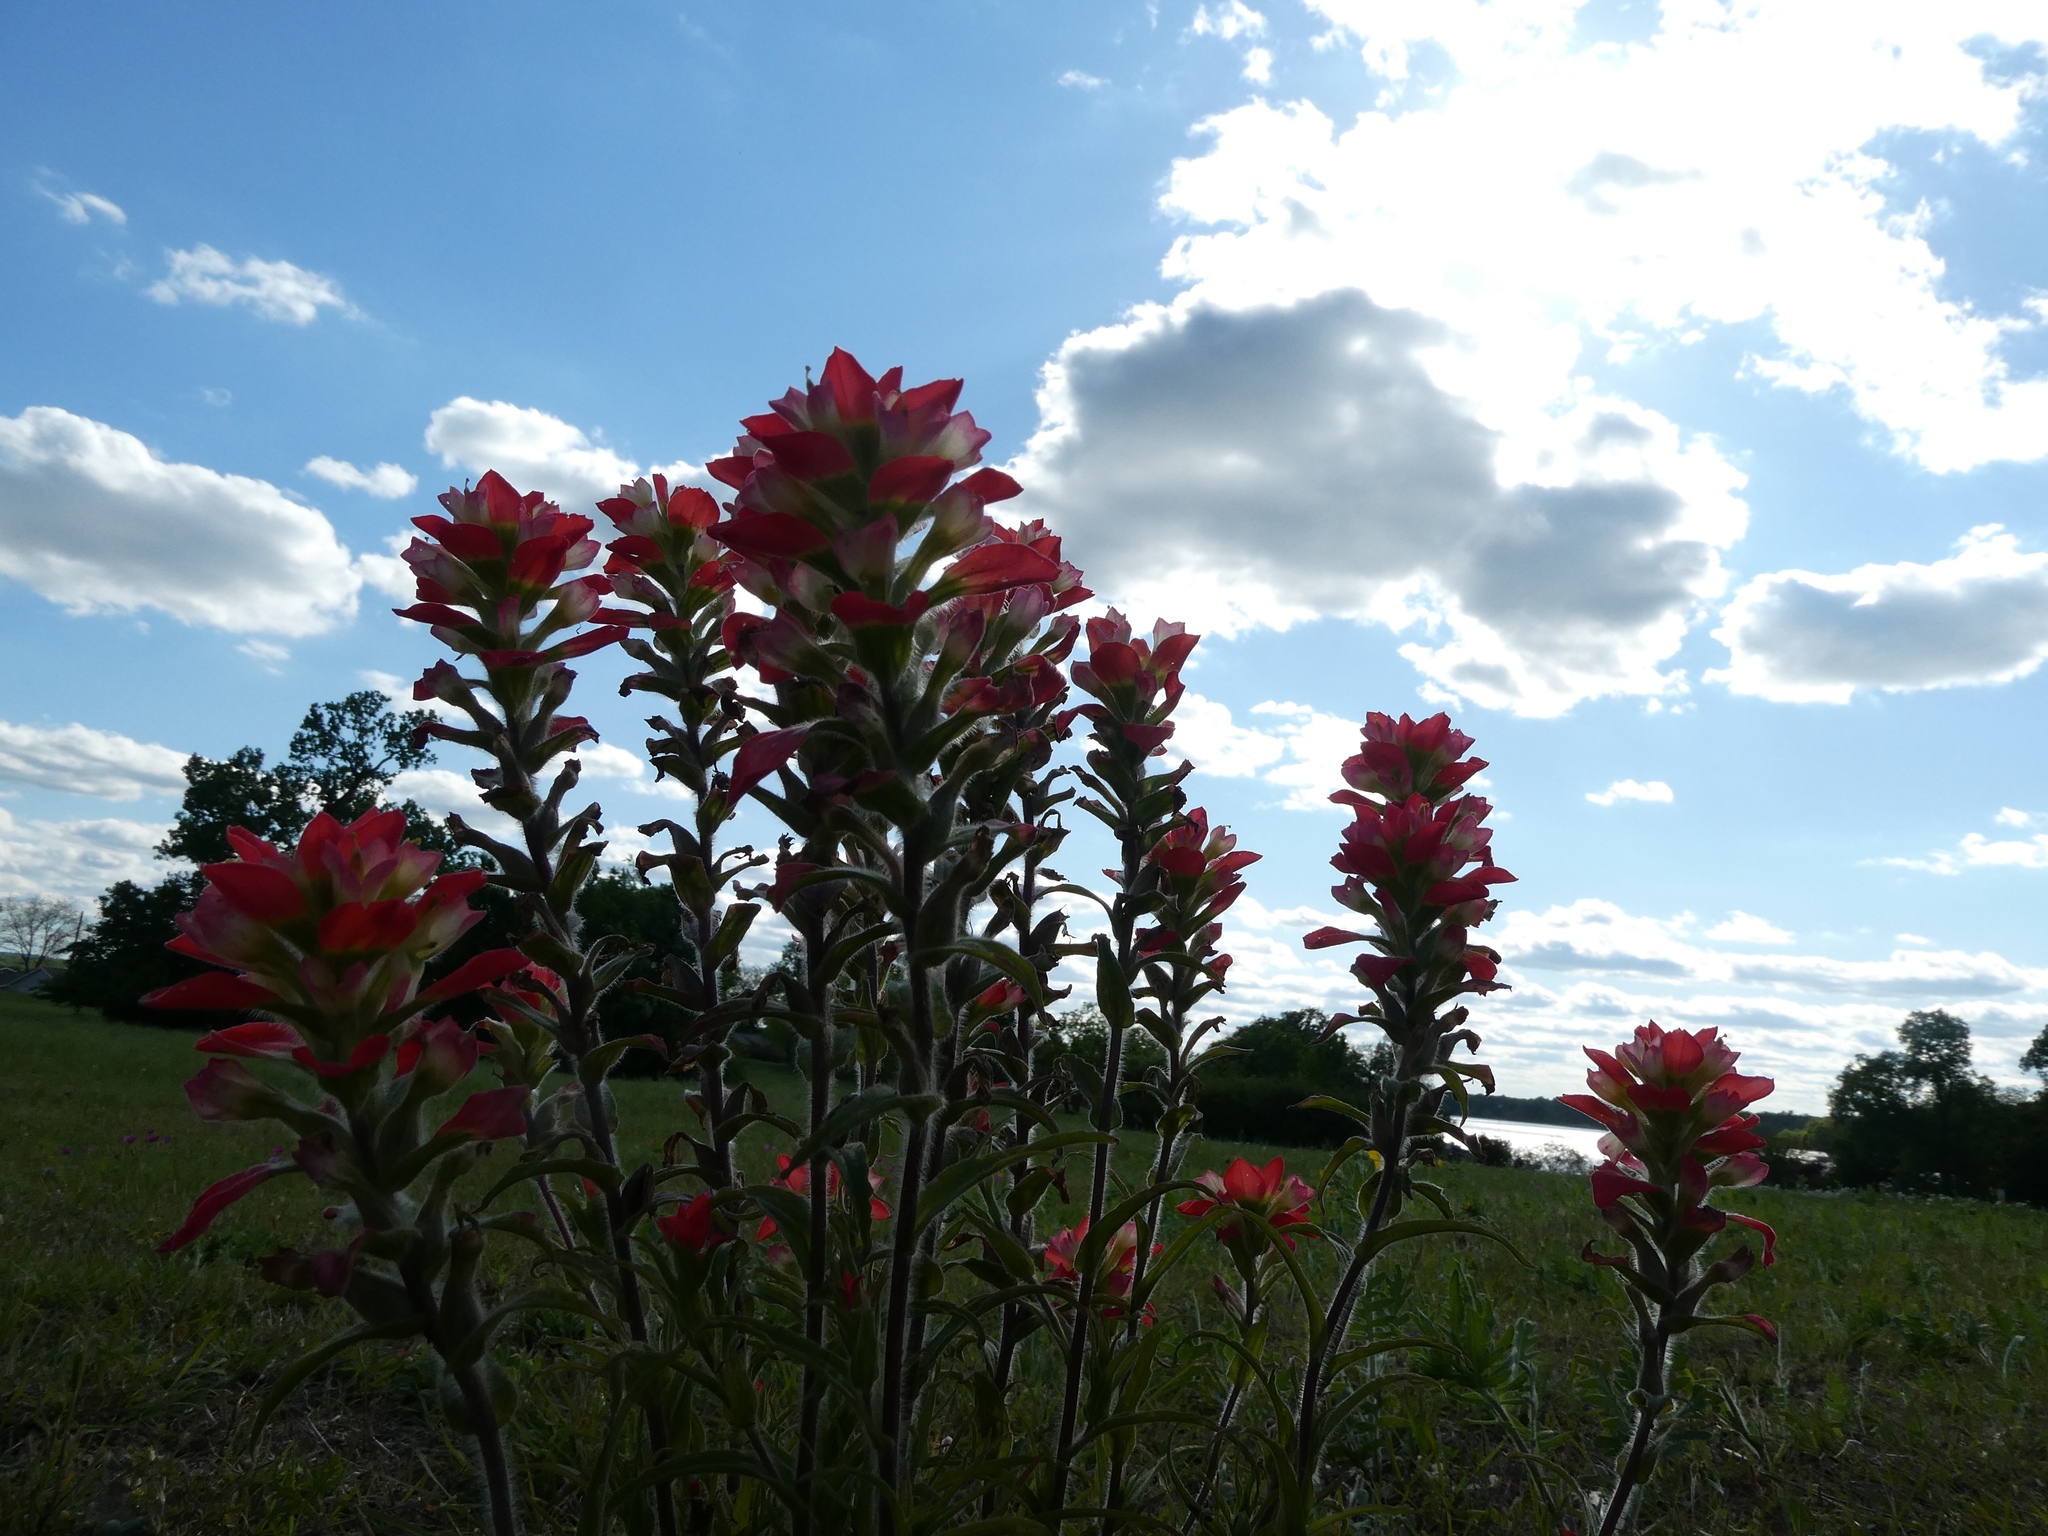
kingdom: Plantae
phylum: Tracheophyta
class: Magnoliopsida
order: Lamiales
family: Orobanchaceae
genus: Castilleja
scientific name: Castilleja indivisa
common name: Texas paintbrush
